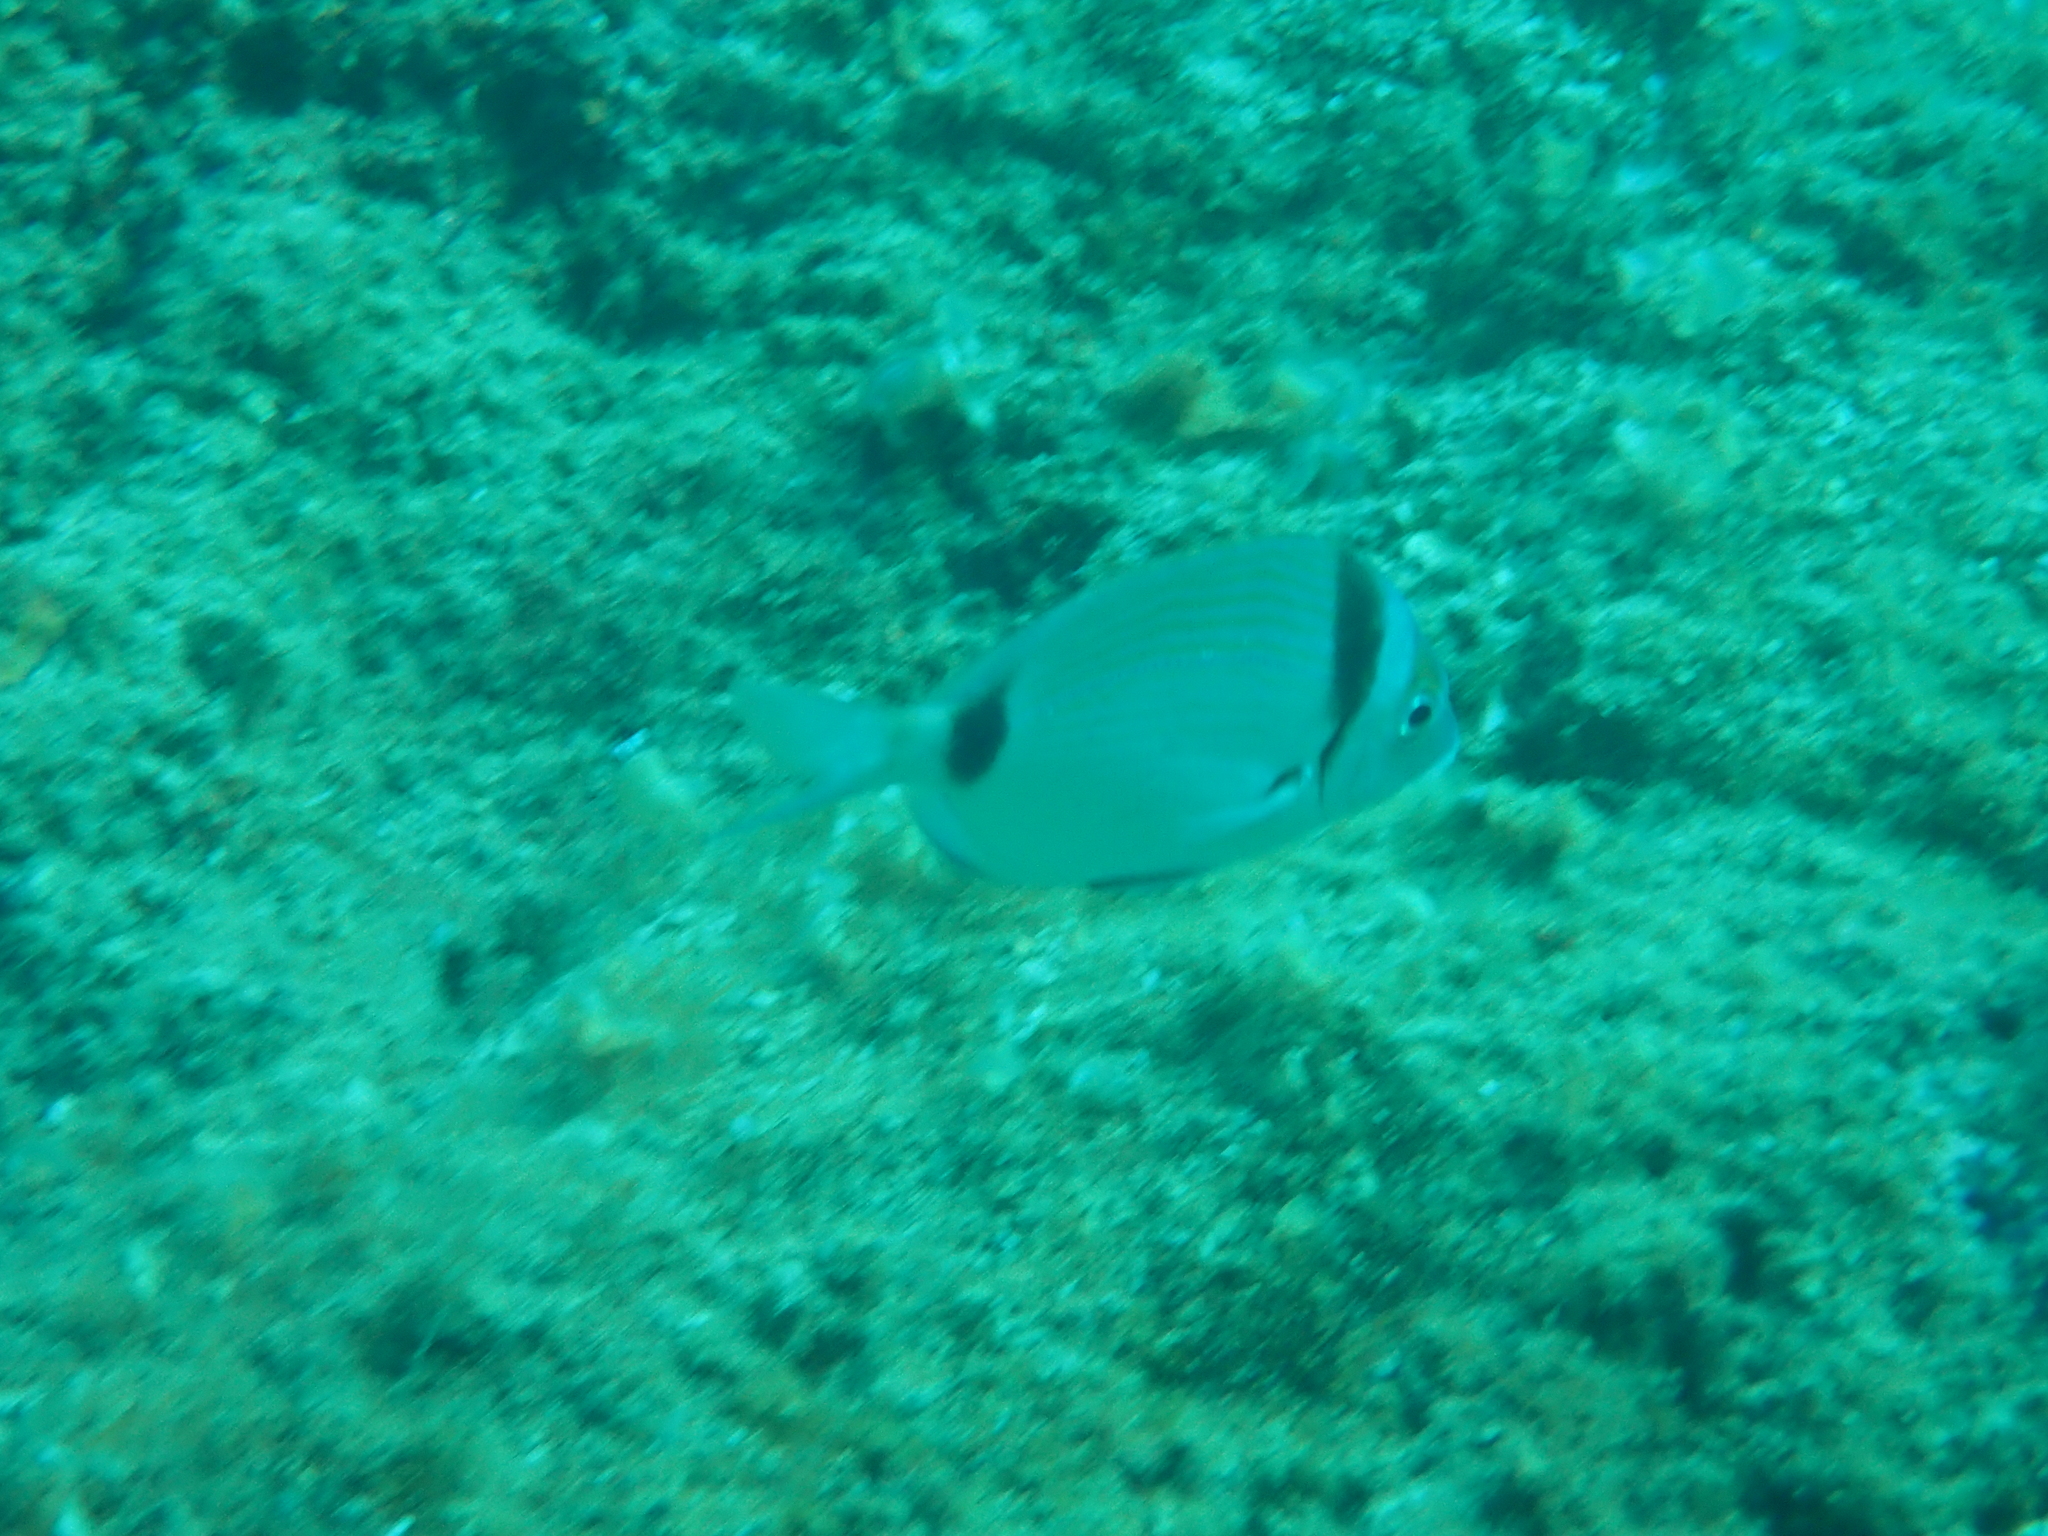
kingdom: Animalia
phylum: Chordata
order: Perciformes
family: Sparidae
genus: Diplodus
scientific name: Diplodus vulgaris
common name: Common two-banded seabream
